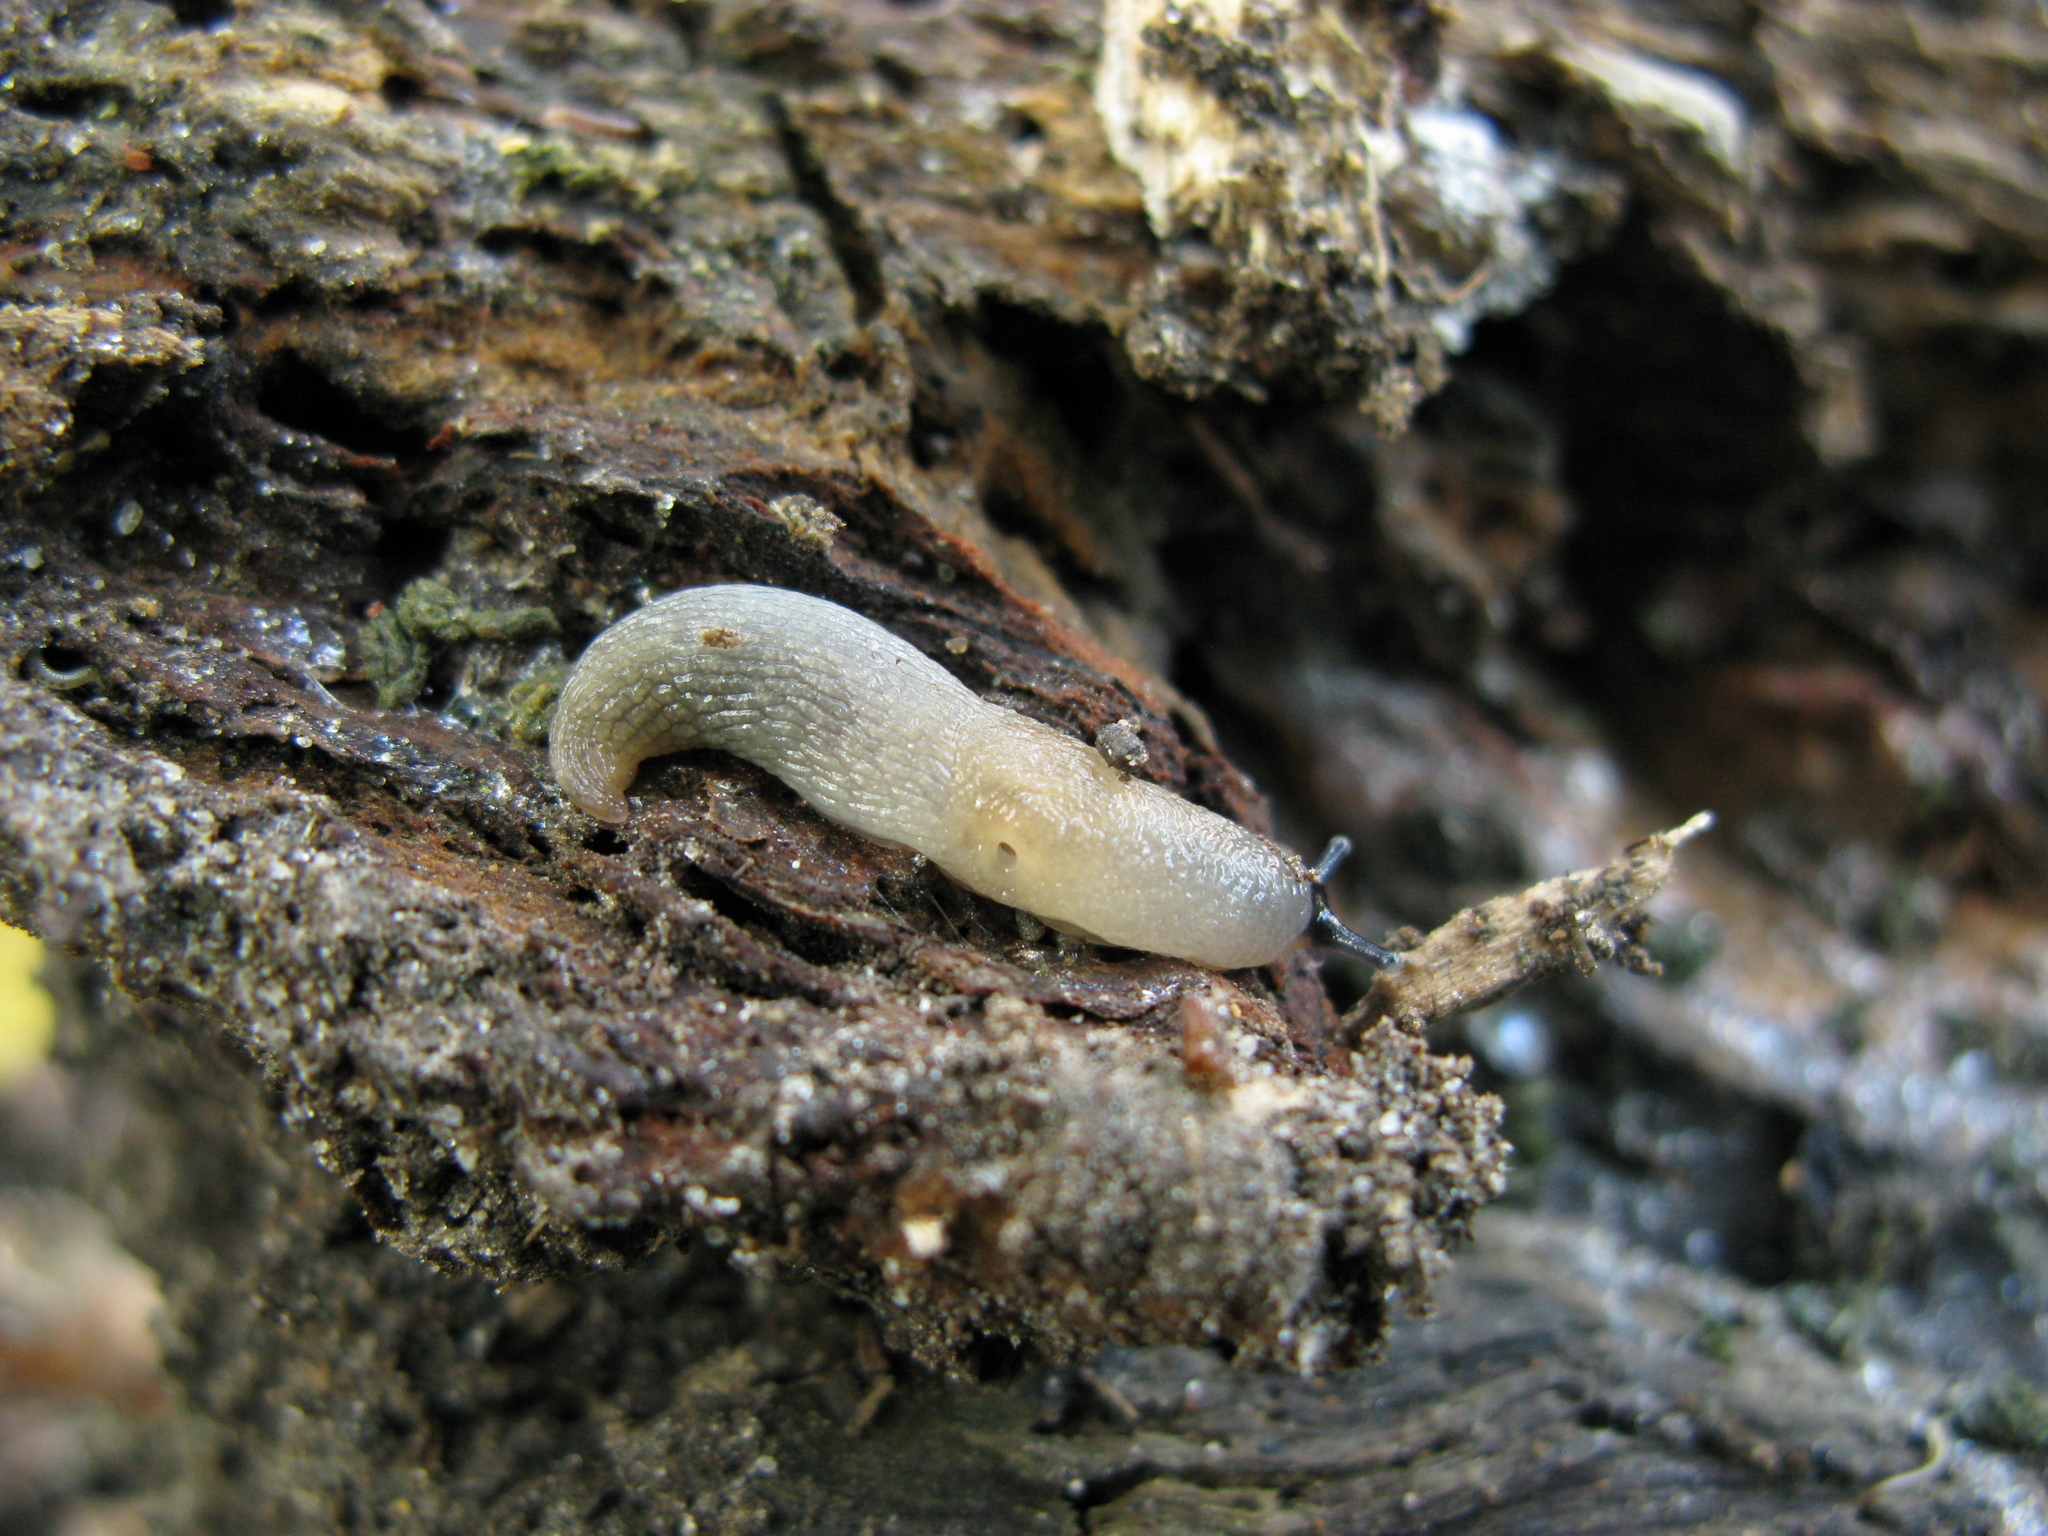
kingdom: Animalia
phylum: Mollusca
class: Gastropoda
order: Stylommatophora
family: Agriolimacidae
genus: Krynickillus
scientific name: Krynickillus melanocephalus
